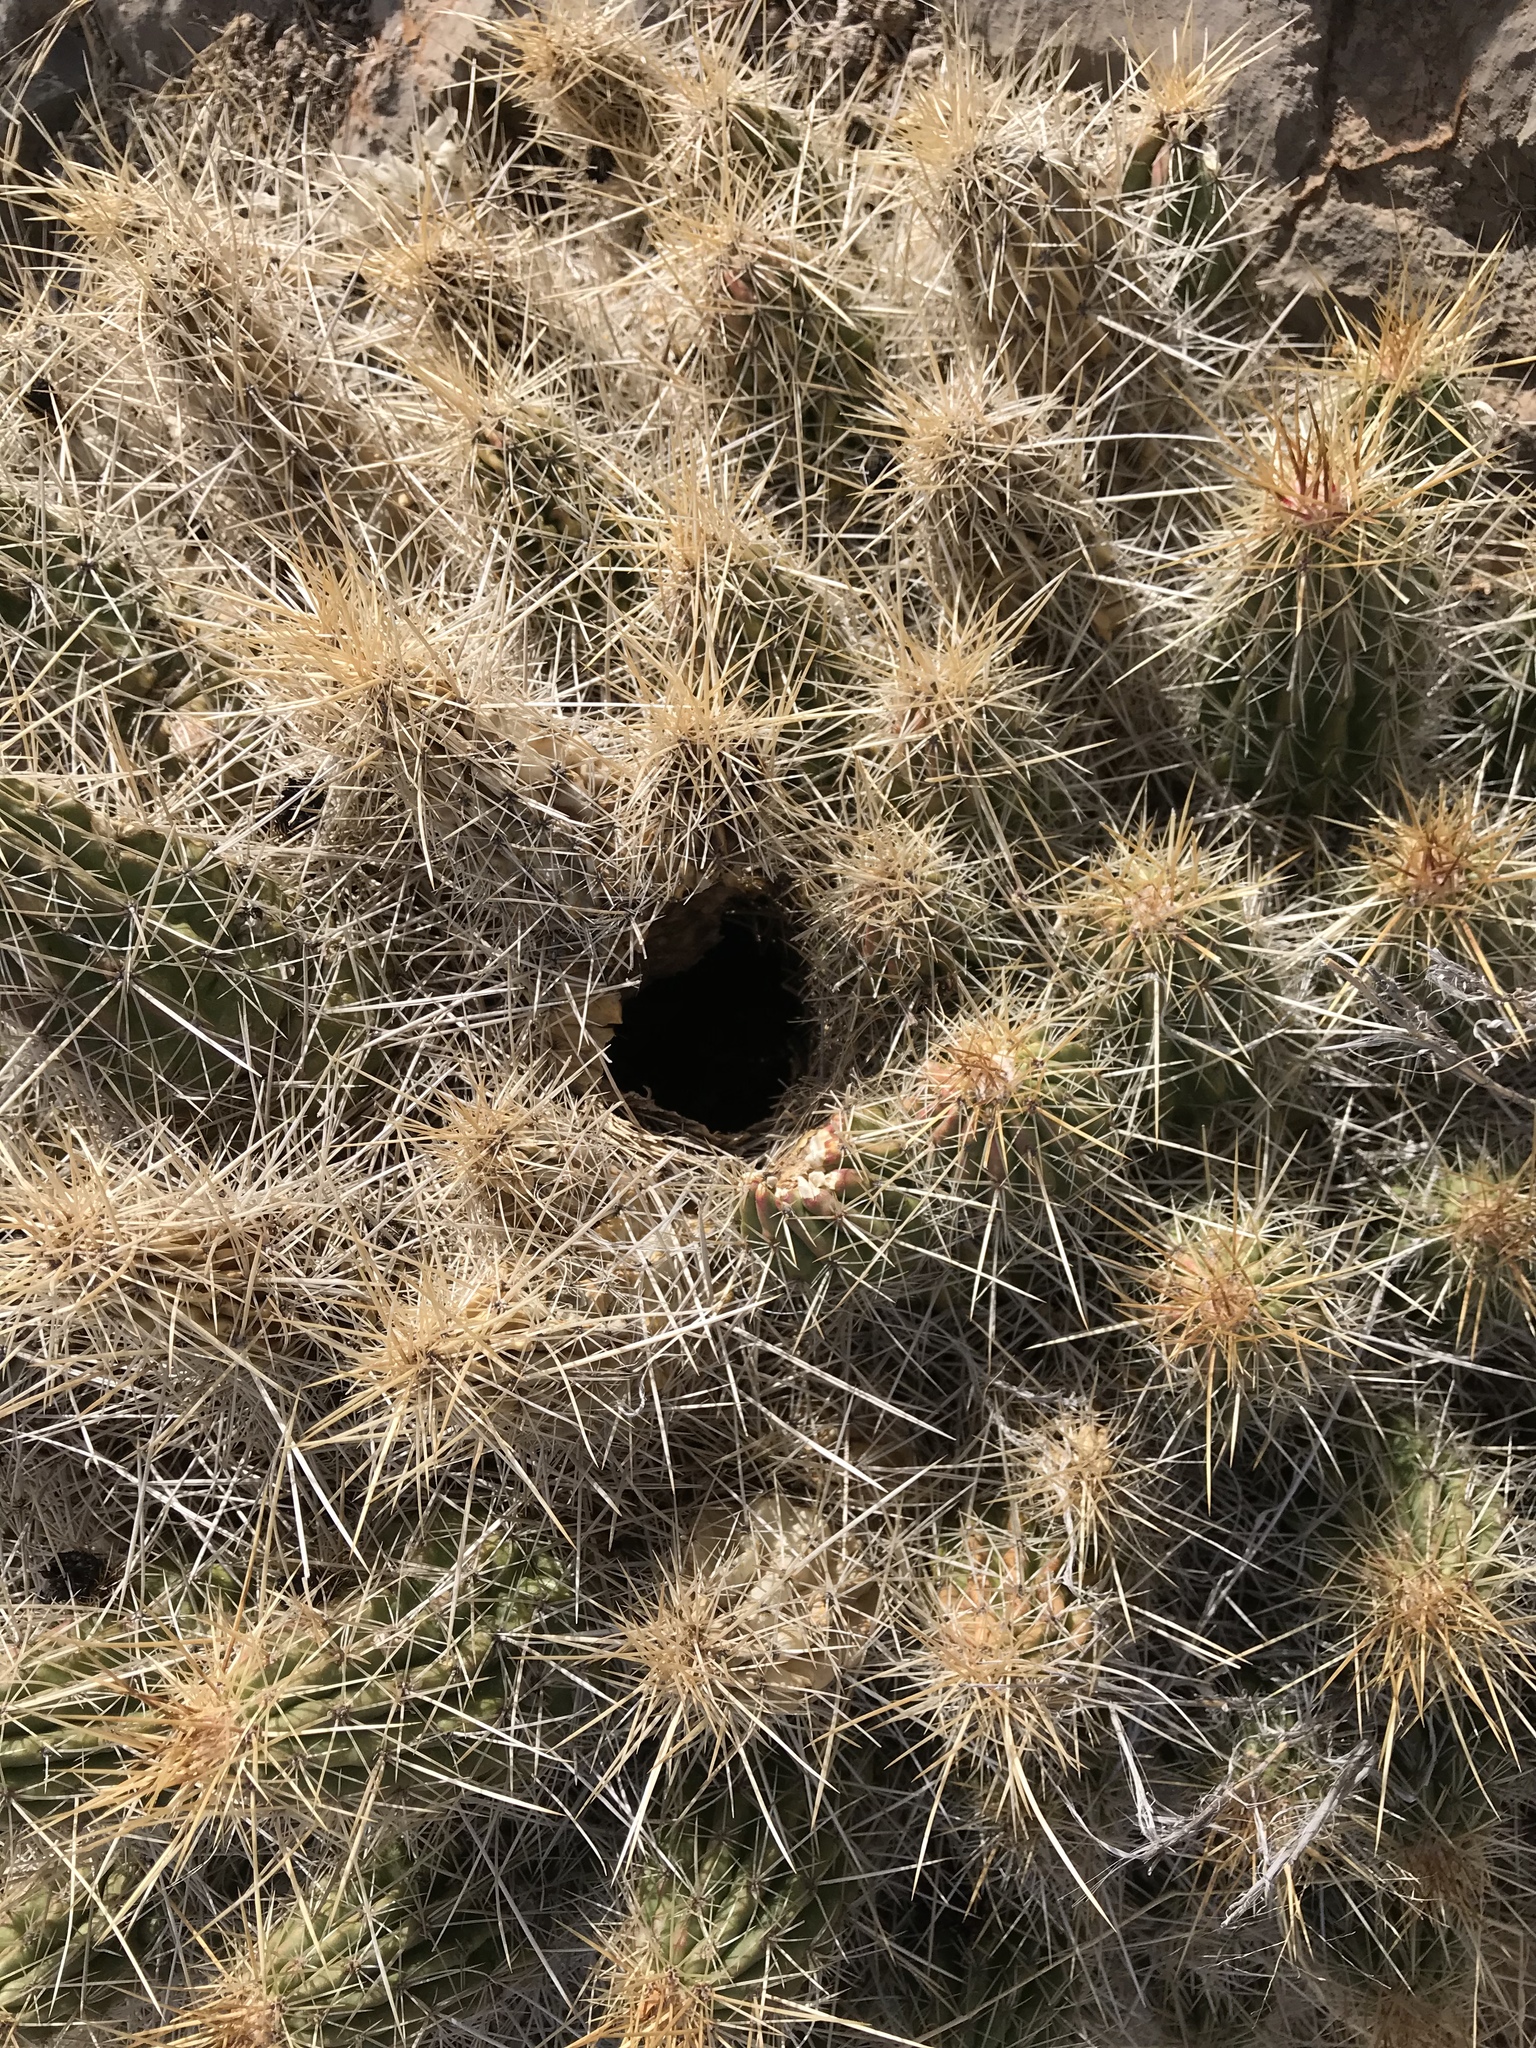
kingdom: Plantae
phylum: Tracheophyta
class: Magnoliopsida
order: Caryophyllales
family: Cactaceae
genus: Echinocereus
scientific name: Echinocereus stramineus
